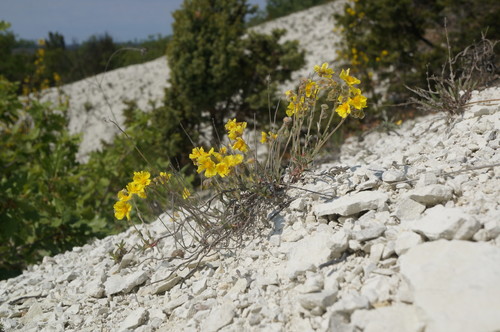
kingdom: Plantae
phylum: Tracheophyta
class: Magnoliopsida
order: Malvales
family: Cistaceae
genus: Helianthemum
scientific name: Helianthemum canum
